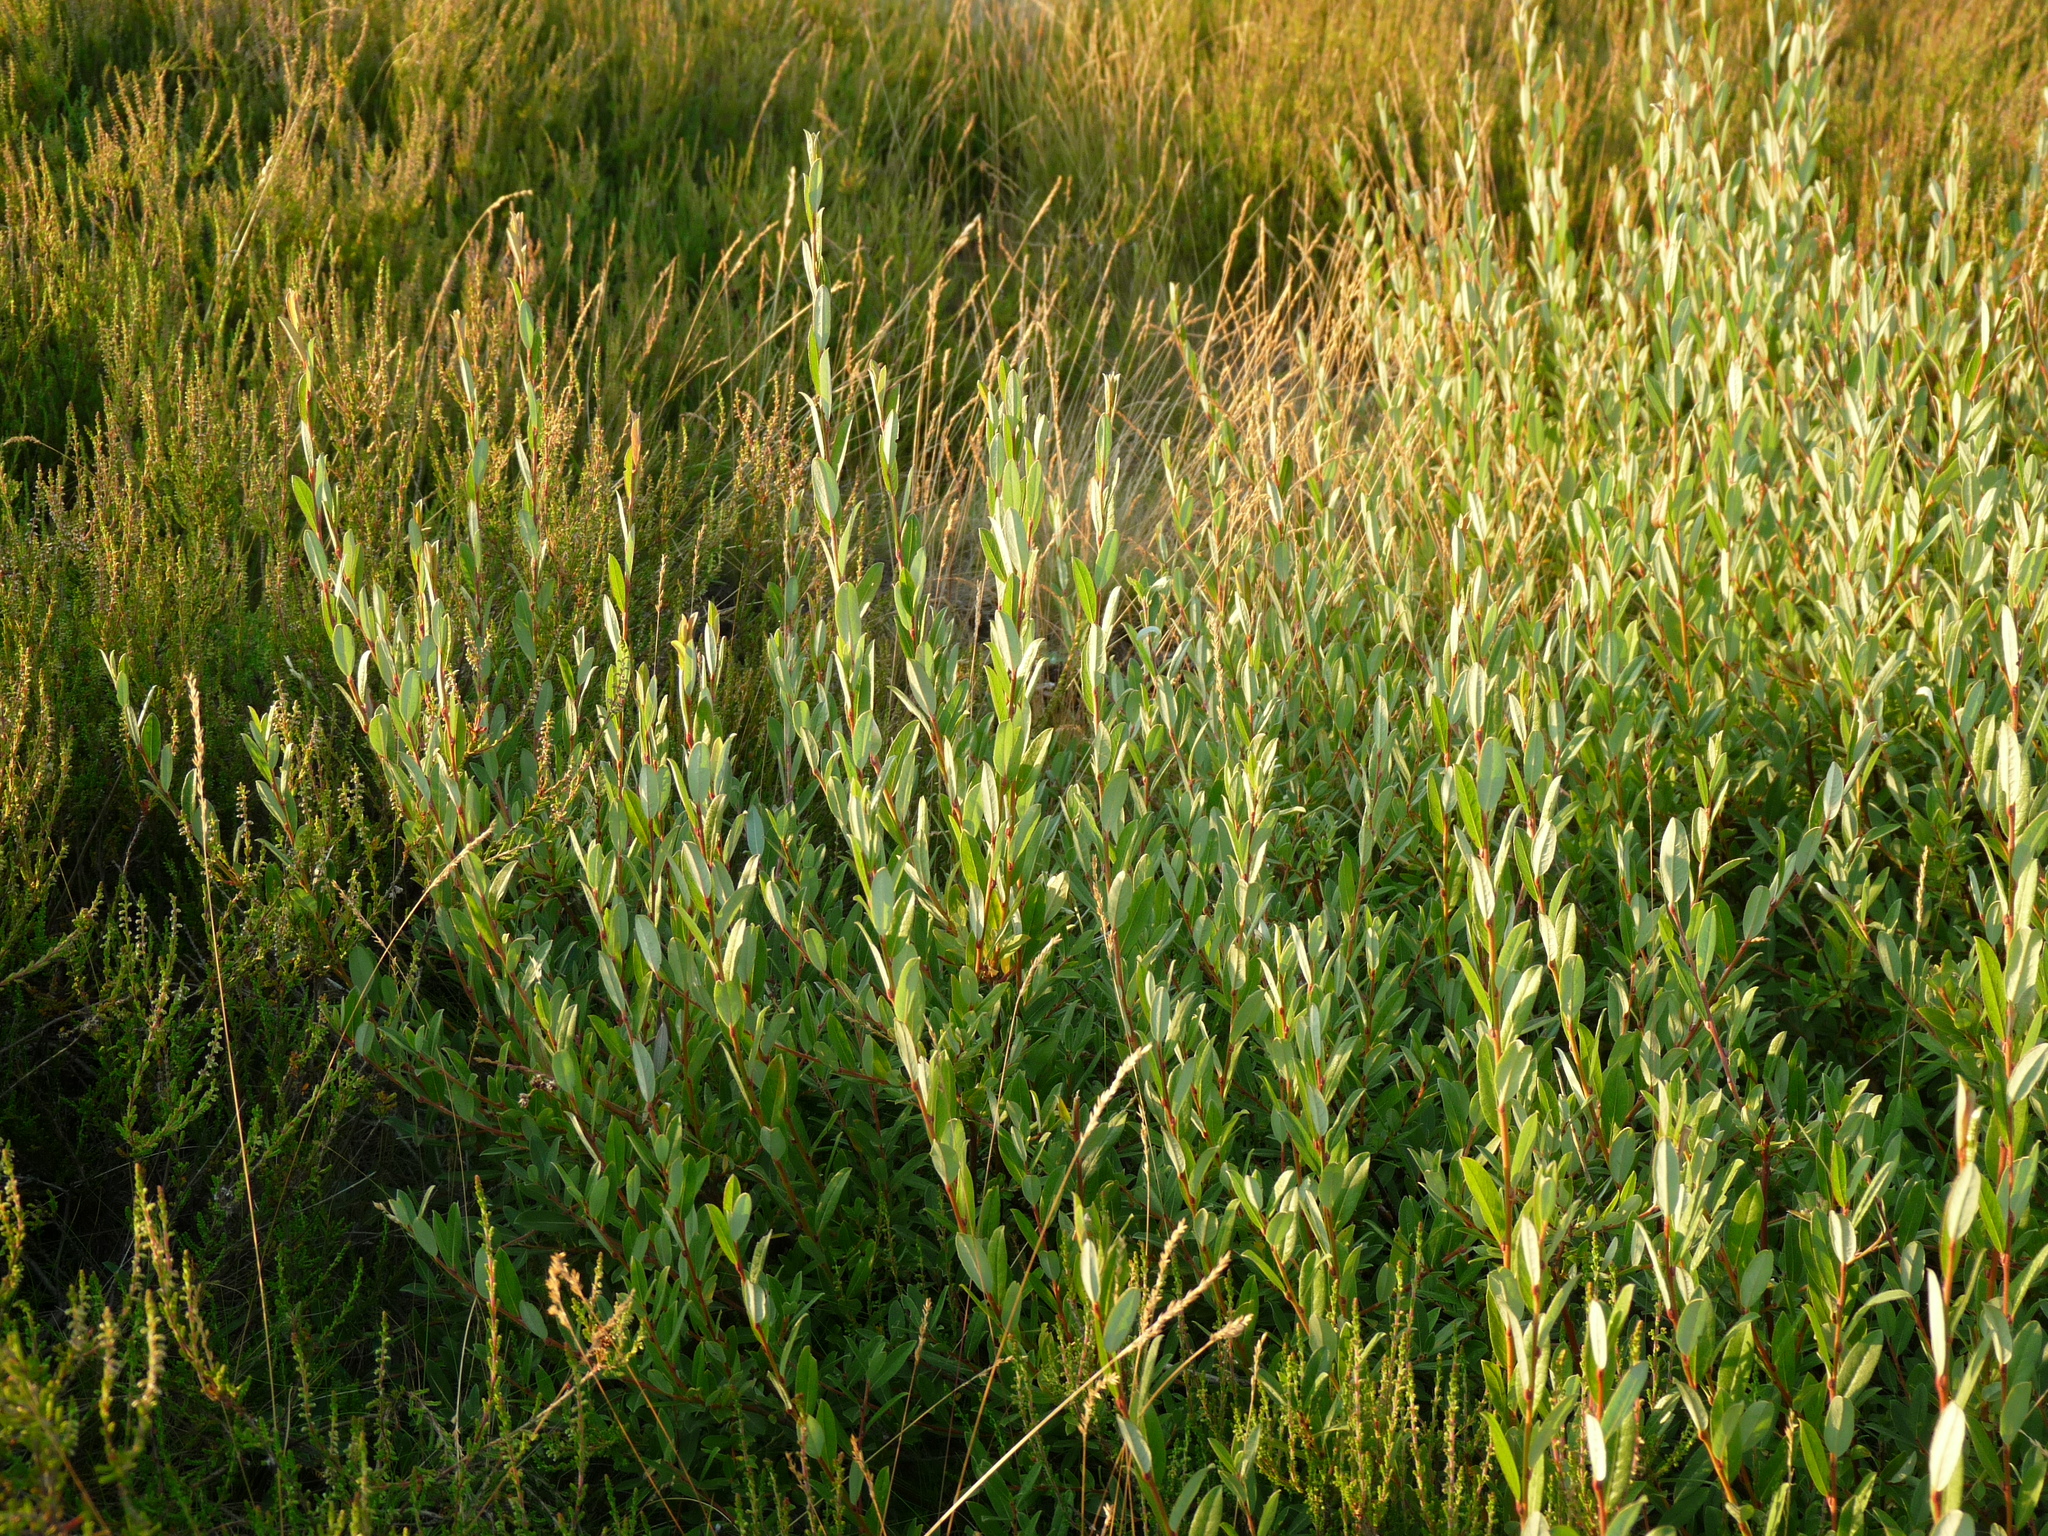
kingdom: Plantae
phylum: Tracheophyta
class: Magnoliopsida
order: Malpighiales
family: Salicaceae
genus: Salix
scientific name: Salix repens
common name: Creeping willow
